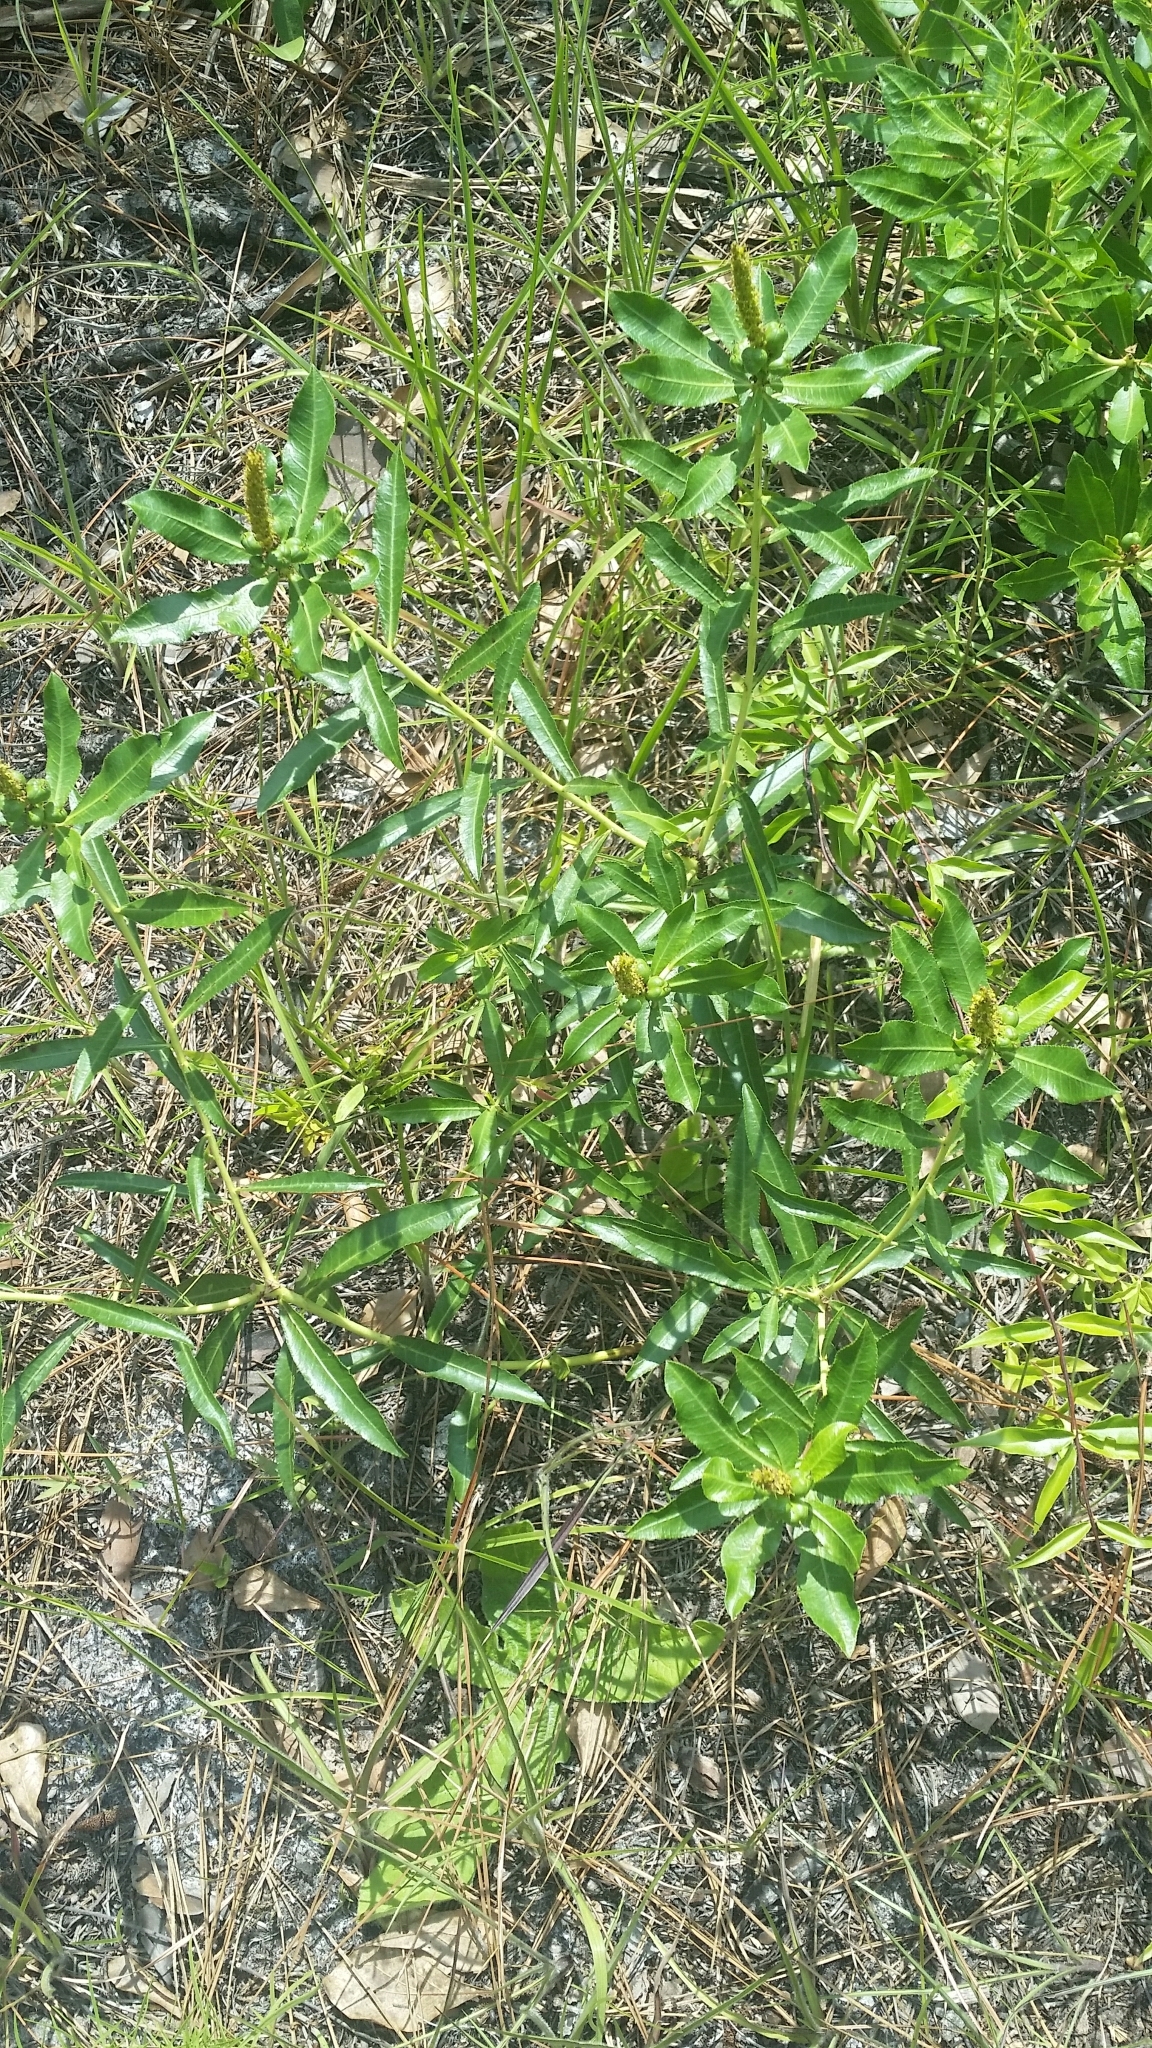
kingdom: Plantae
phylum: Tracheophyta
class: Magnoliopsida
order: Malpighiales
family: Euphorbiaceae
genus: Stillingia
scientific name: Stillingia sylvatica
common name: Queen's-delight
